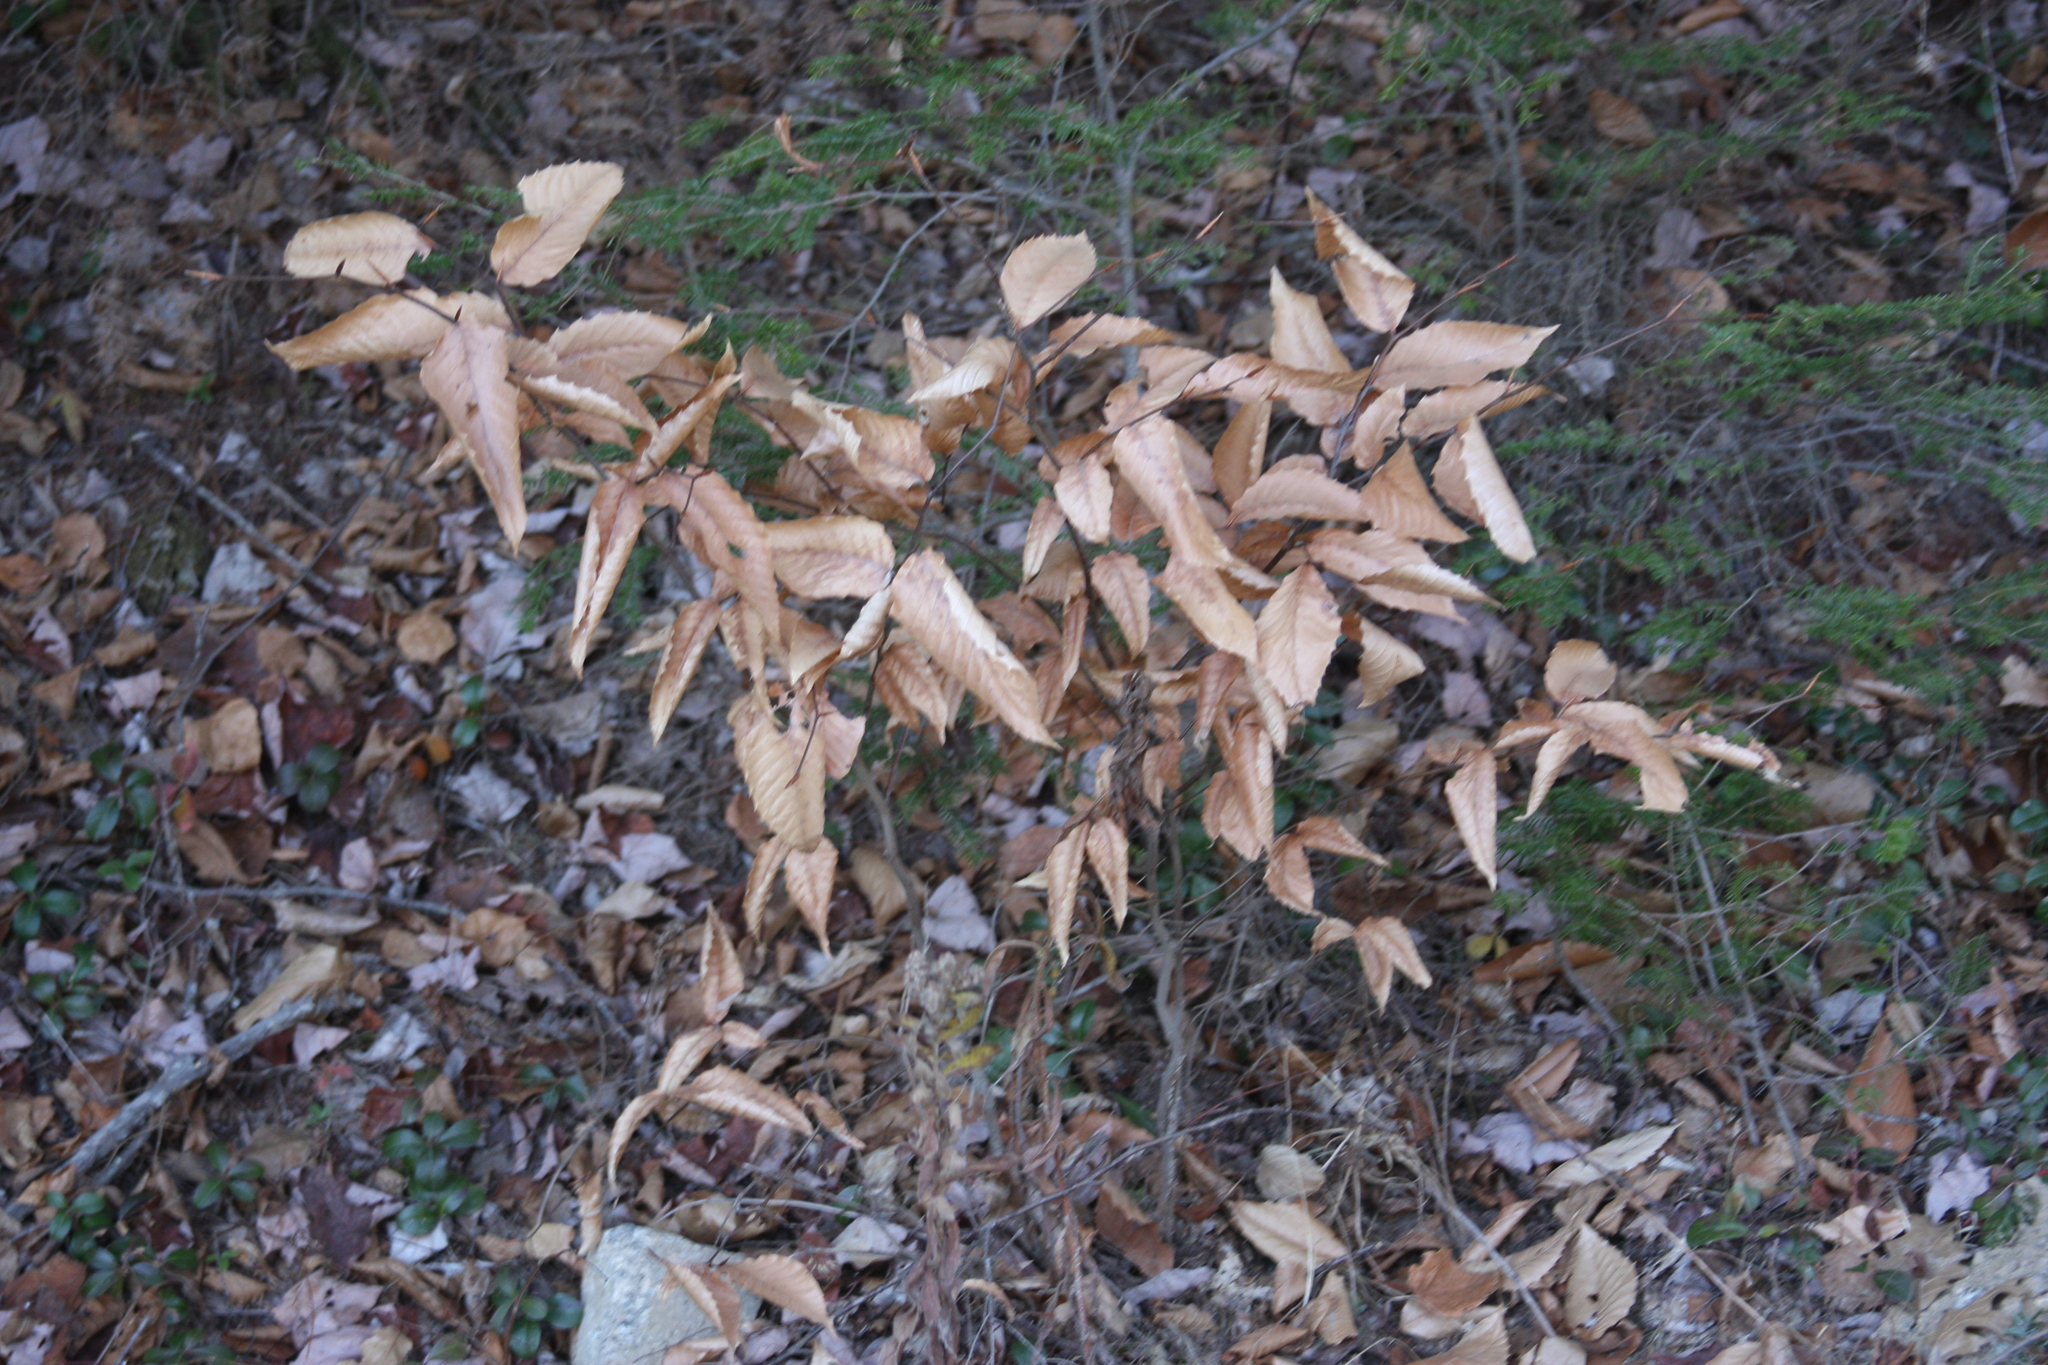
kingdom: Plantae
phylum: Tracheophyta
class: Magnoliopsida
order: Fagales
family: Fagaceae
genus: Fagus
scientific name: Fagus grandifolia
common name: American beech
